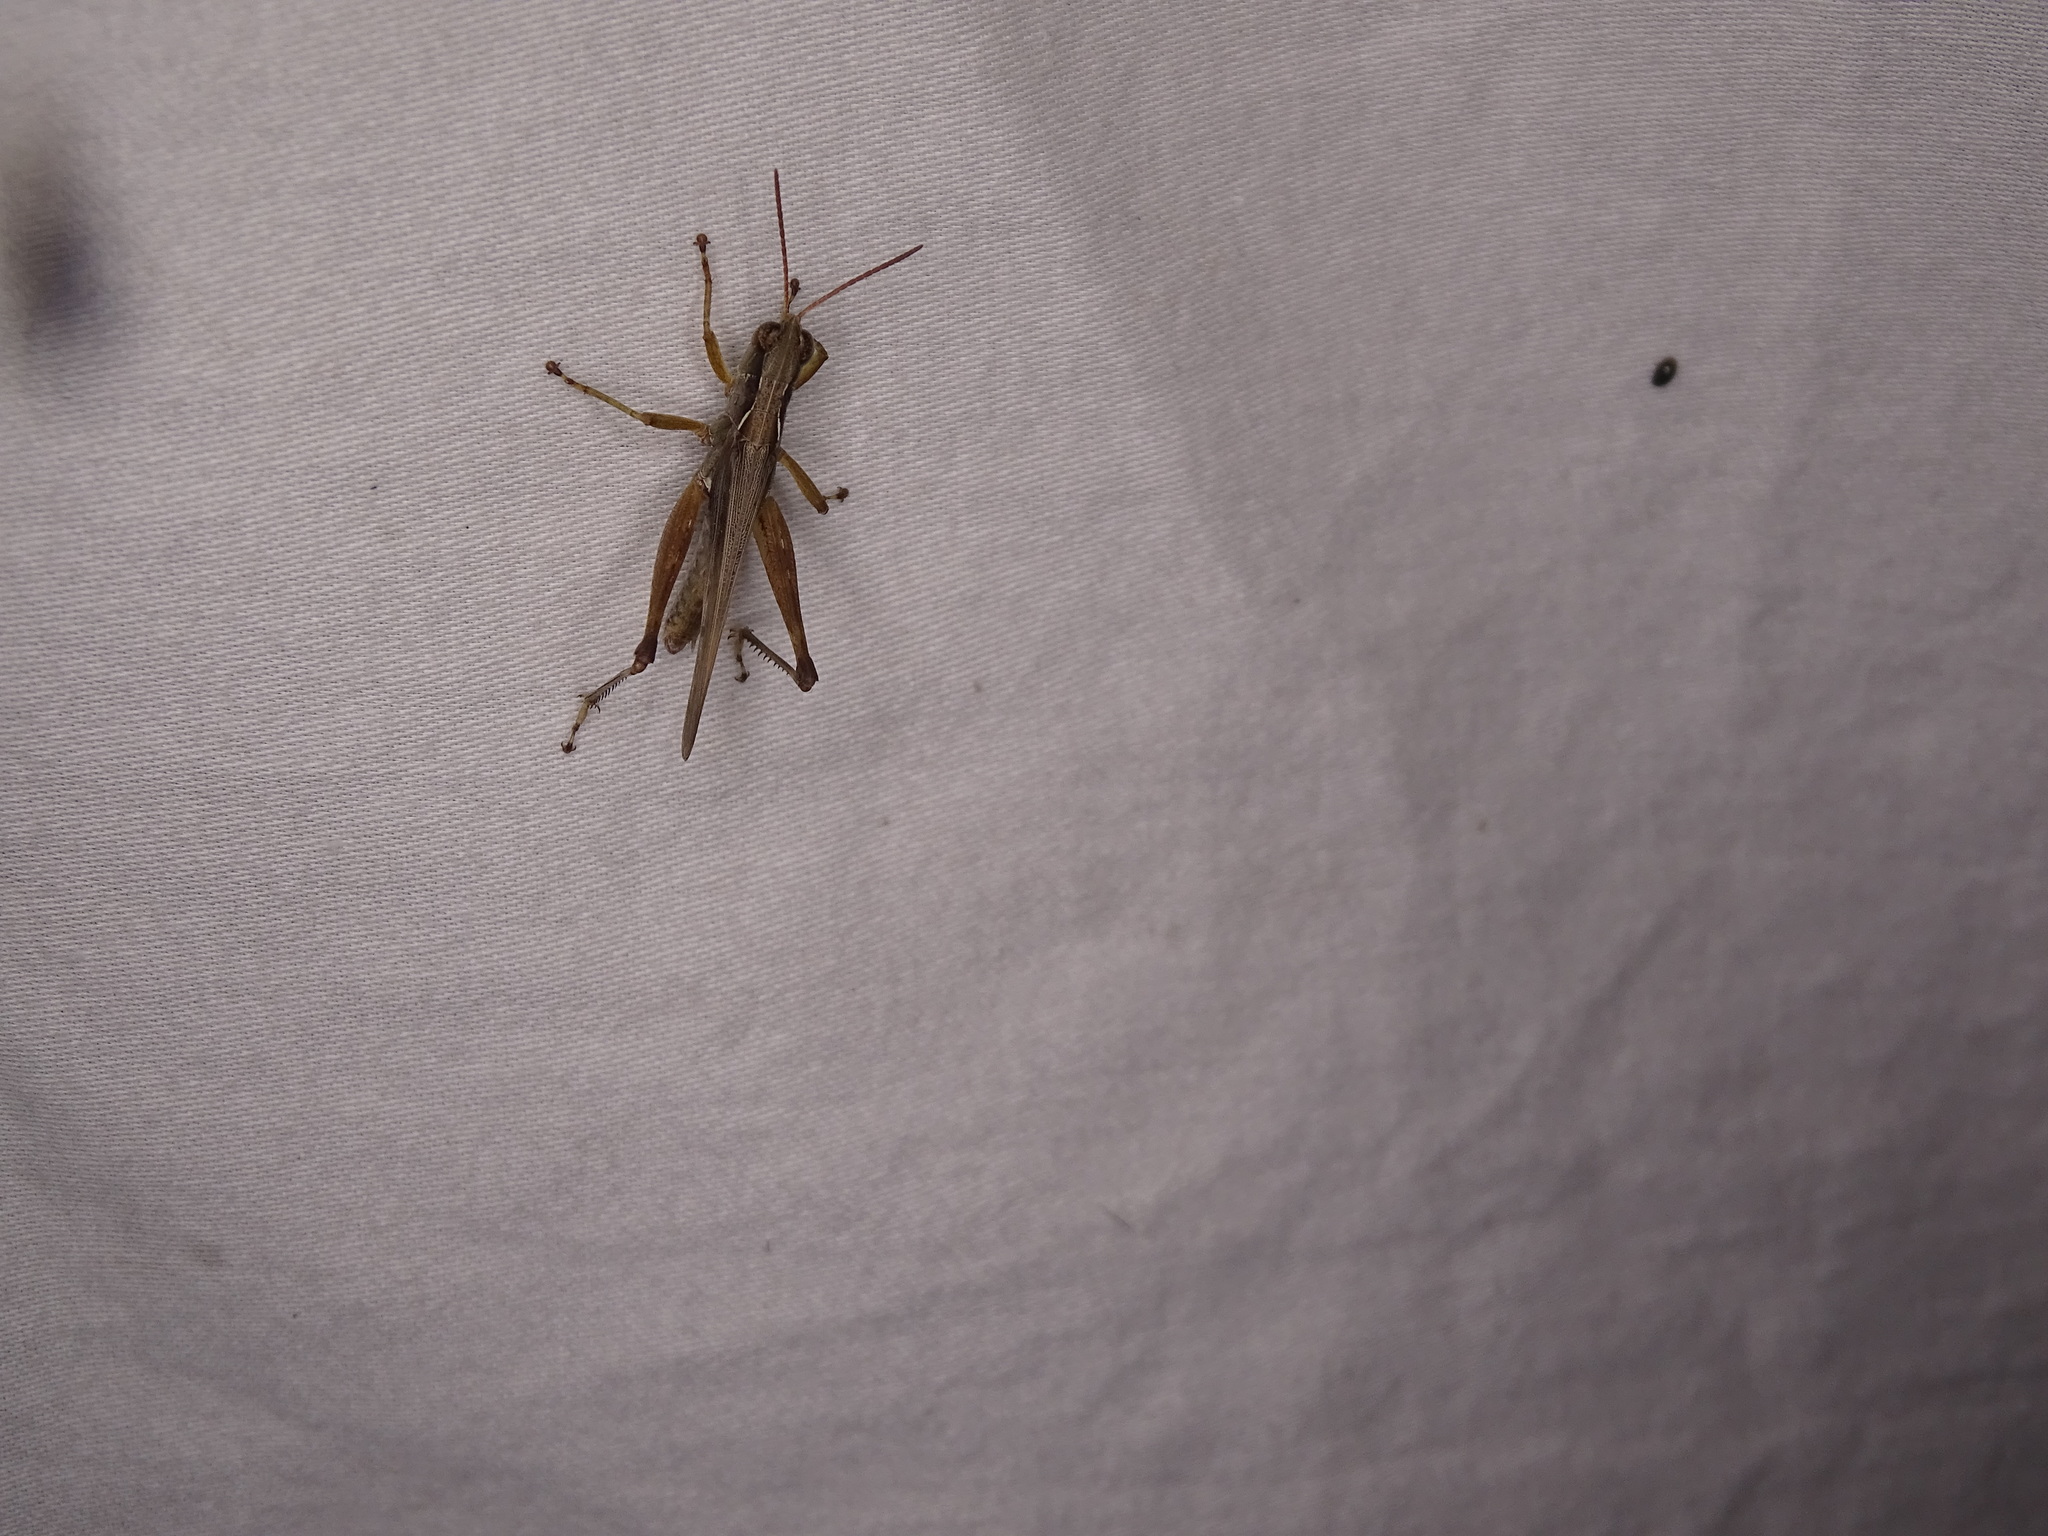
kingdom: Animalia
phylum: Arthropoda
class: Insecta
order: Orthoptera
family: Acrididae
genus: Orphulella
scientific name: Orphulella pelidna
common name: Spotted-wing grasshopper
